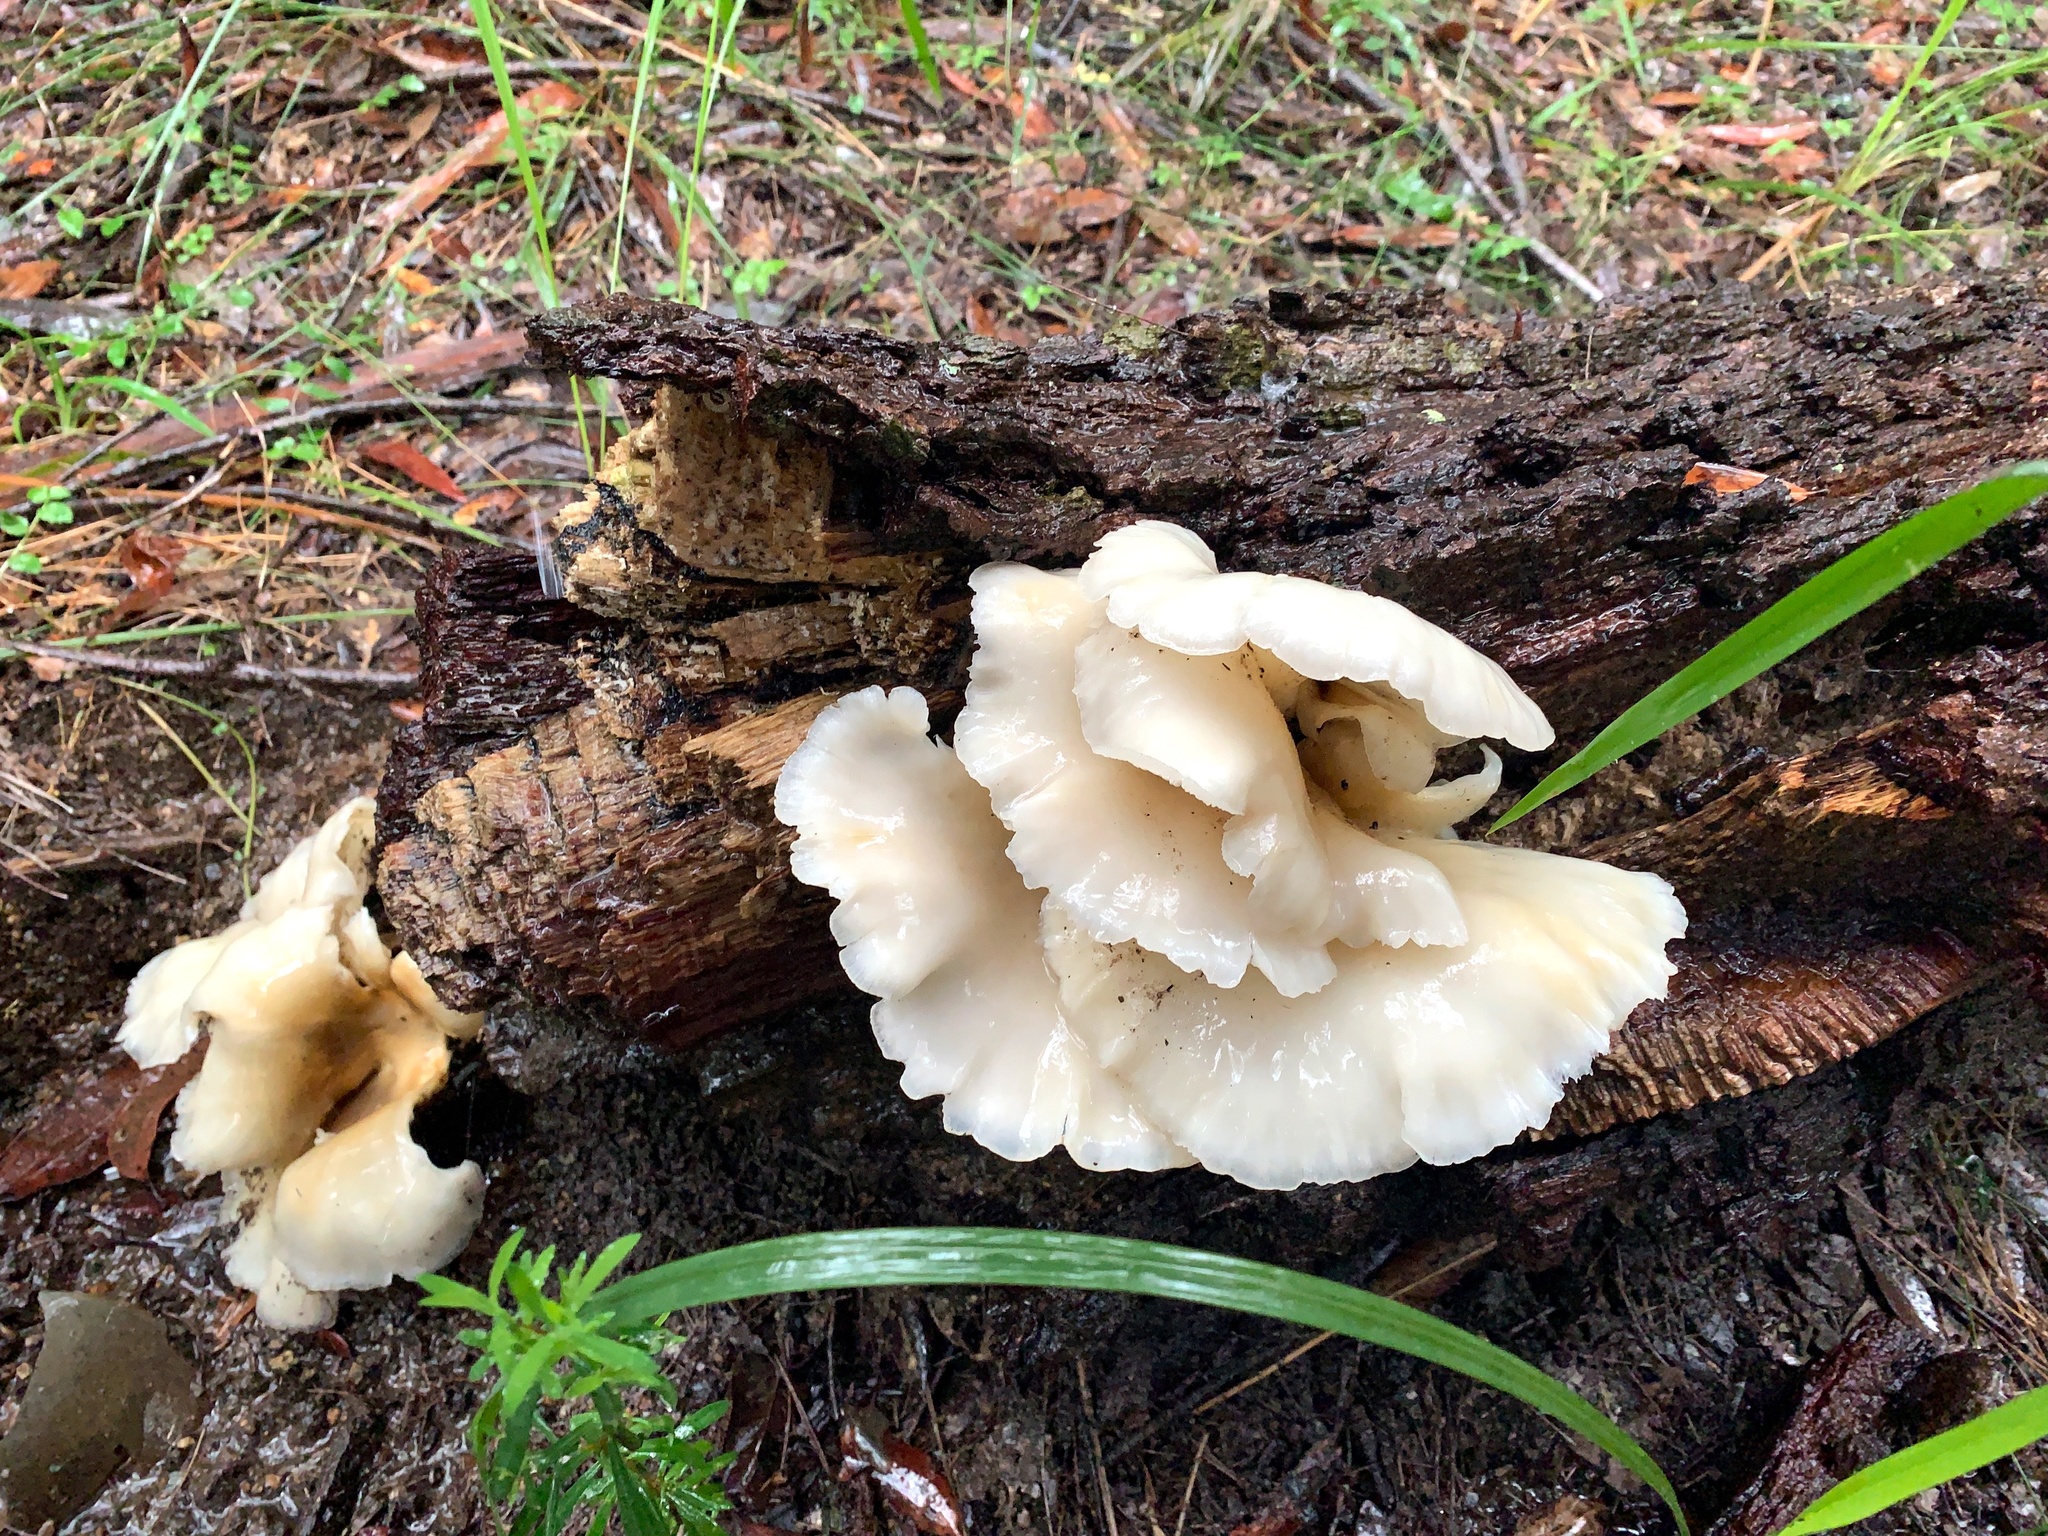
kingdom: Fungi
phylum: Basidiomycota
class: Agaricomycetes
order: Agaricales
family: Omphalotaceae
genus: Omphalotus
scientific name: Omphalotus nidiformis
